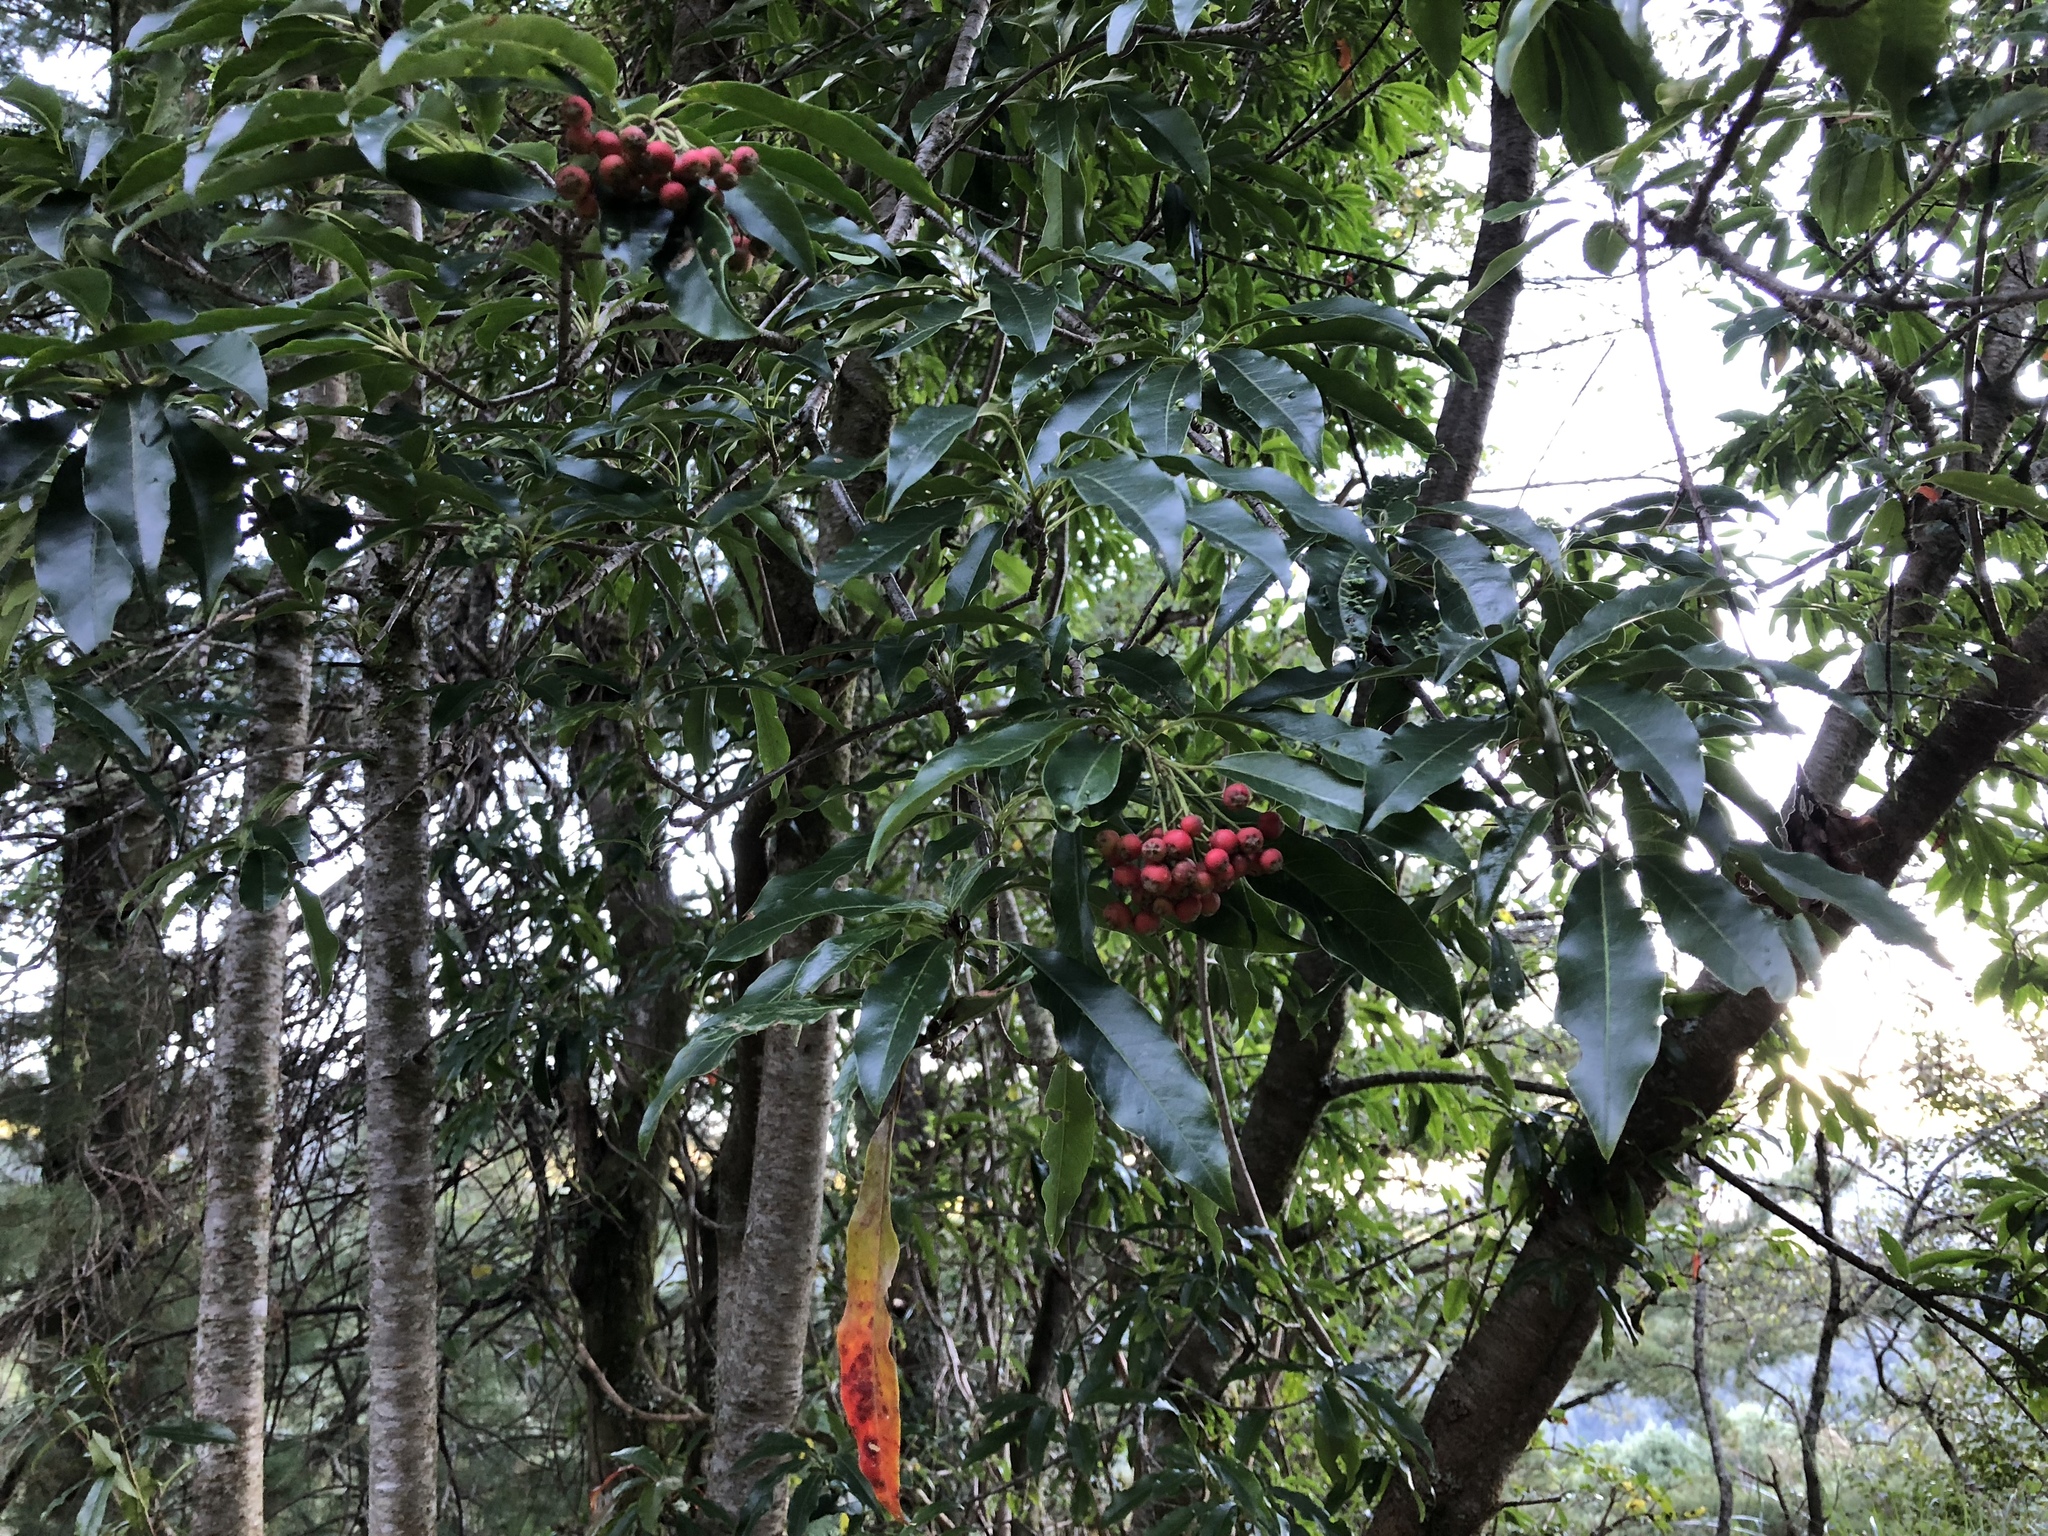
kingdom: Plantae
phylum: Tracheophyta
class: Magnoliopsida
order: Rosales
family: Rosaceae
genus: Stranvaesia
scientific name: Stranvaesia davidiana
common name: Chinese photinia
